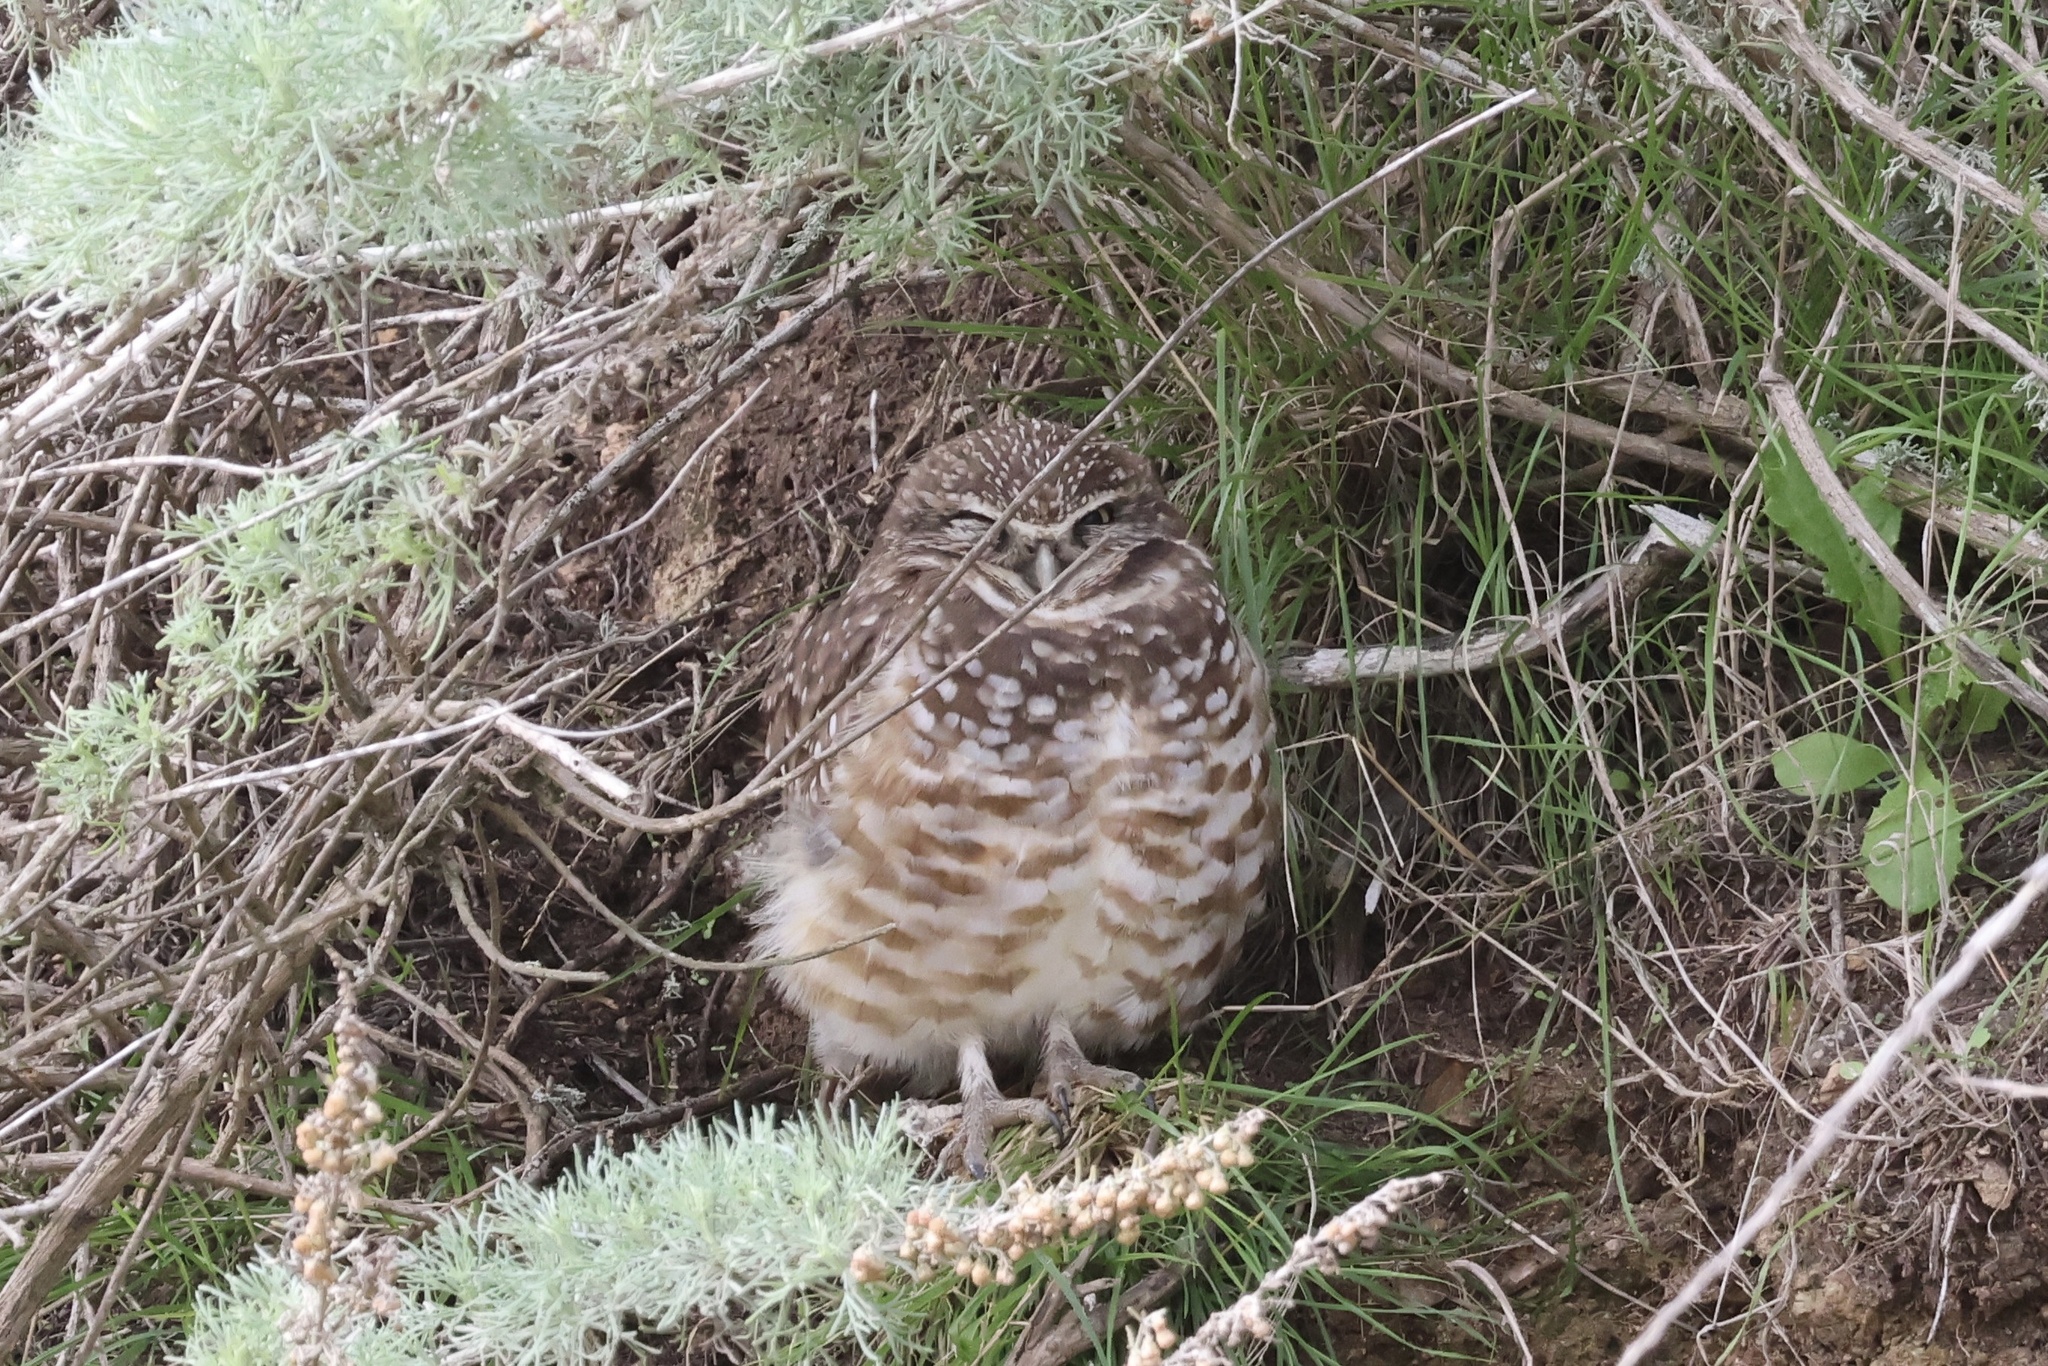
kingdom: Animalia
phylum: Chordata
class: Aves
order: Strigiformes
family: Strigidae
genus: Athene
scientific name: Athene cunicularia
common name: Burrowing owl
